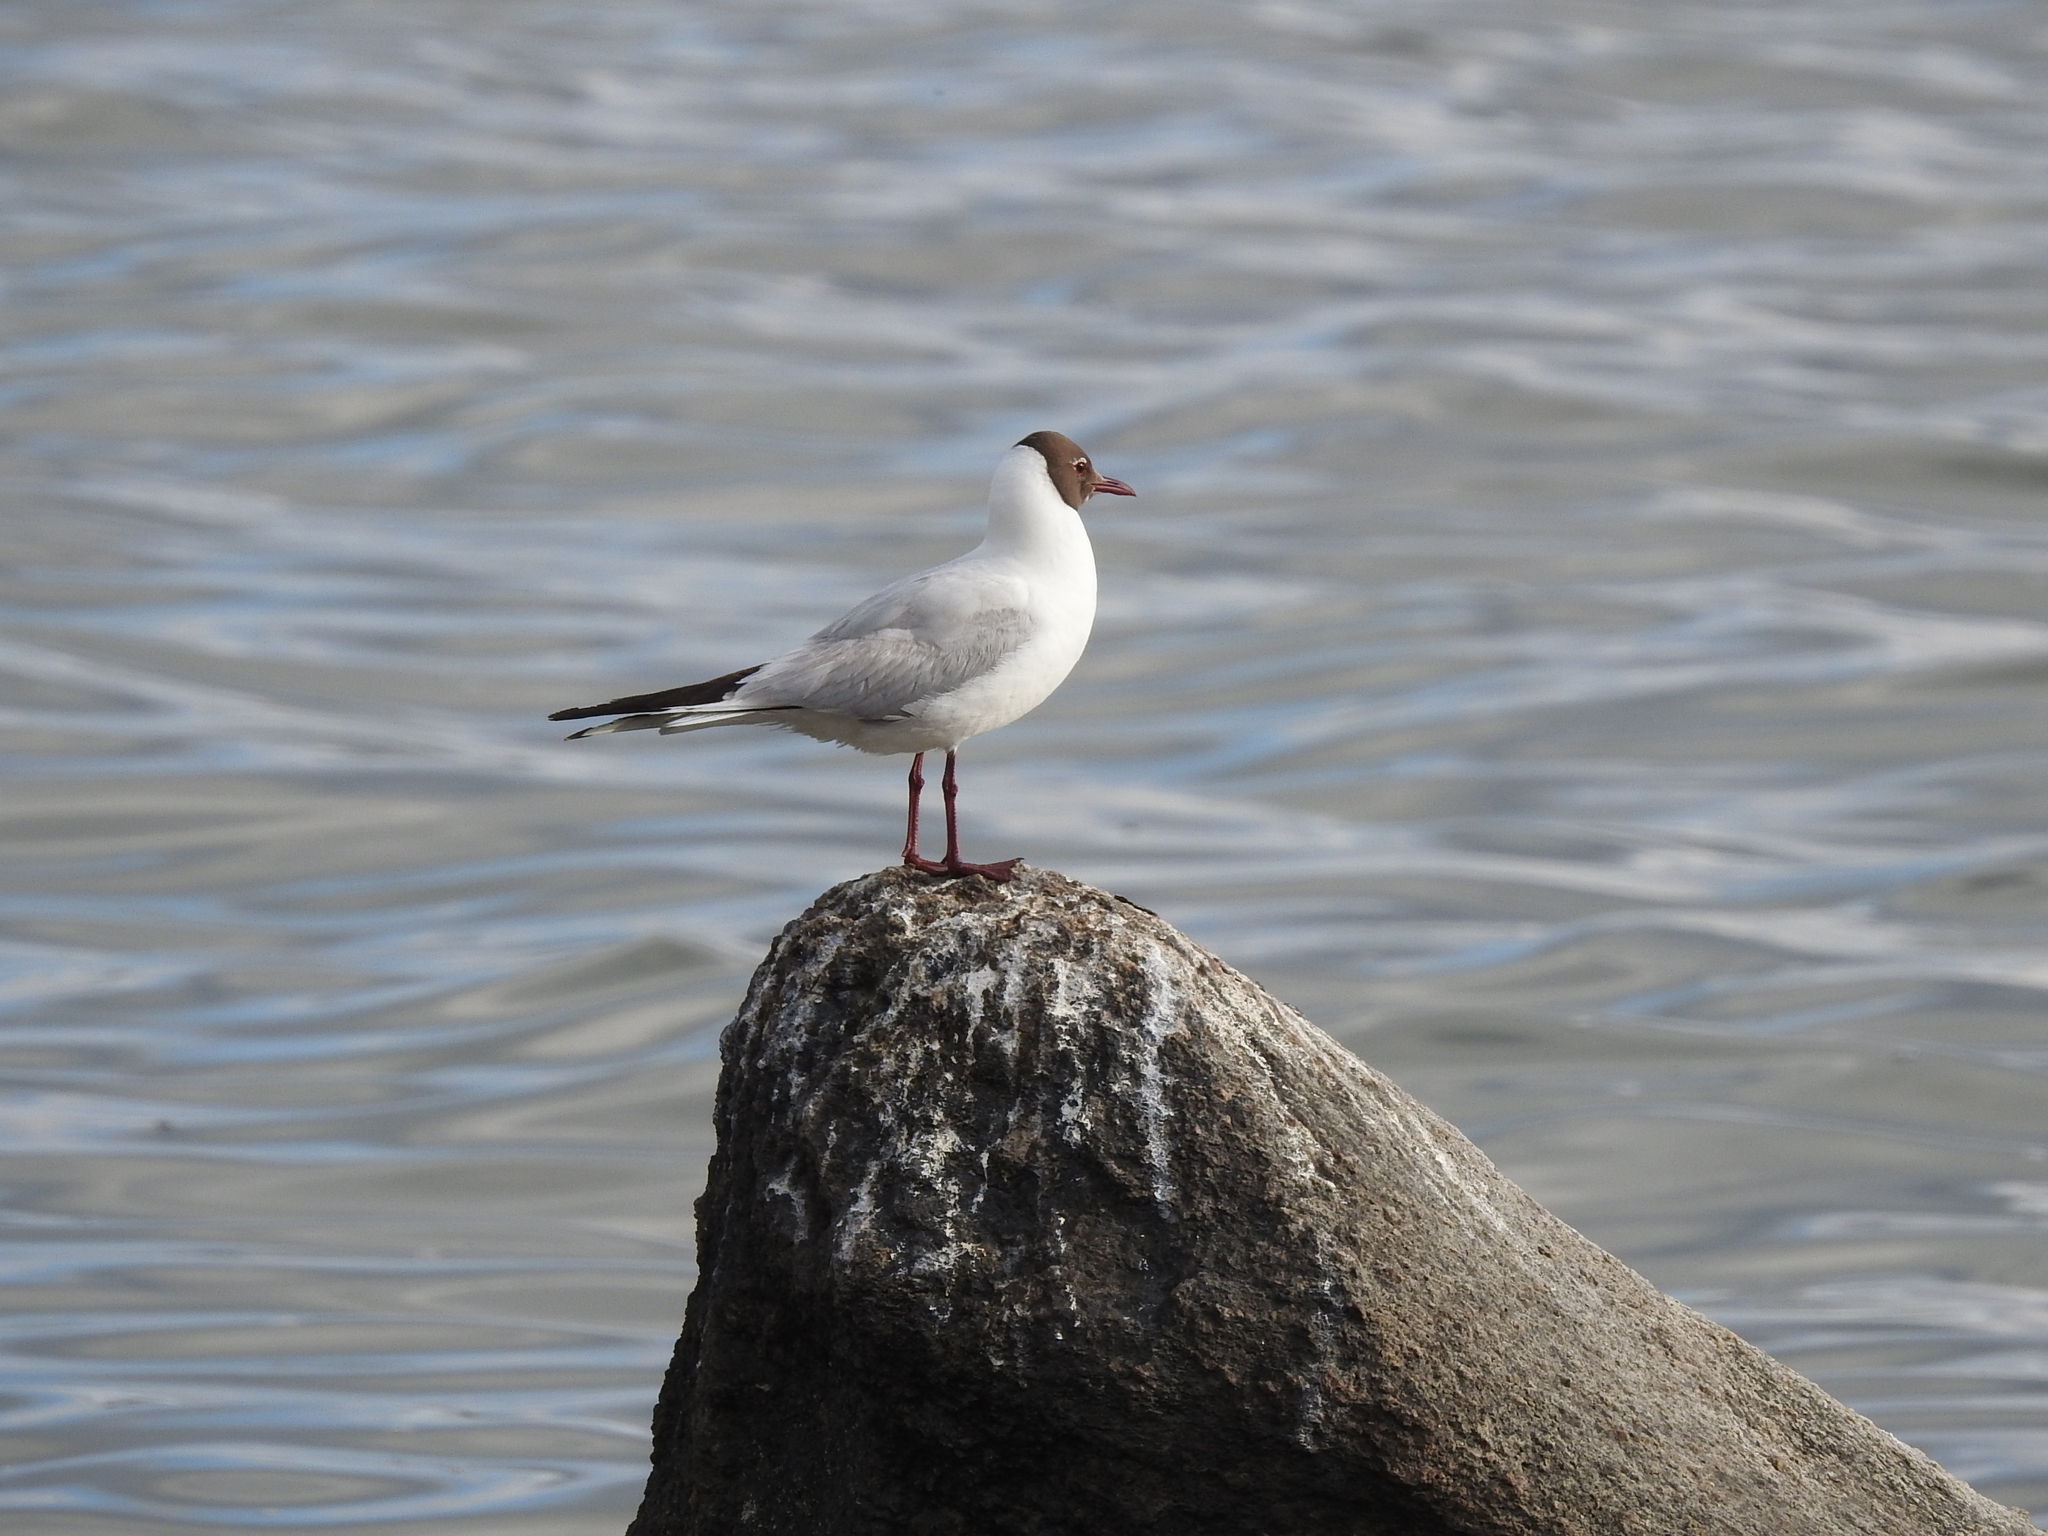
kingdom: Animalia
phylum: Chordata
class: Aves
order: Charadriiformes
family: Laridae
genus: Chroicocephalus
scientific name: Chroicocephalus ridibundus
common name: Black-headed gull
